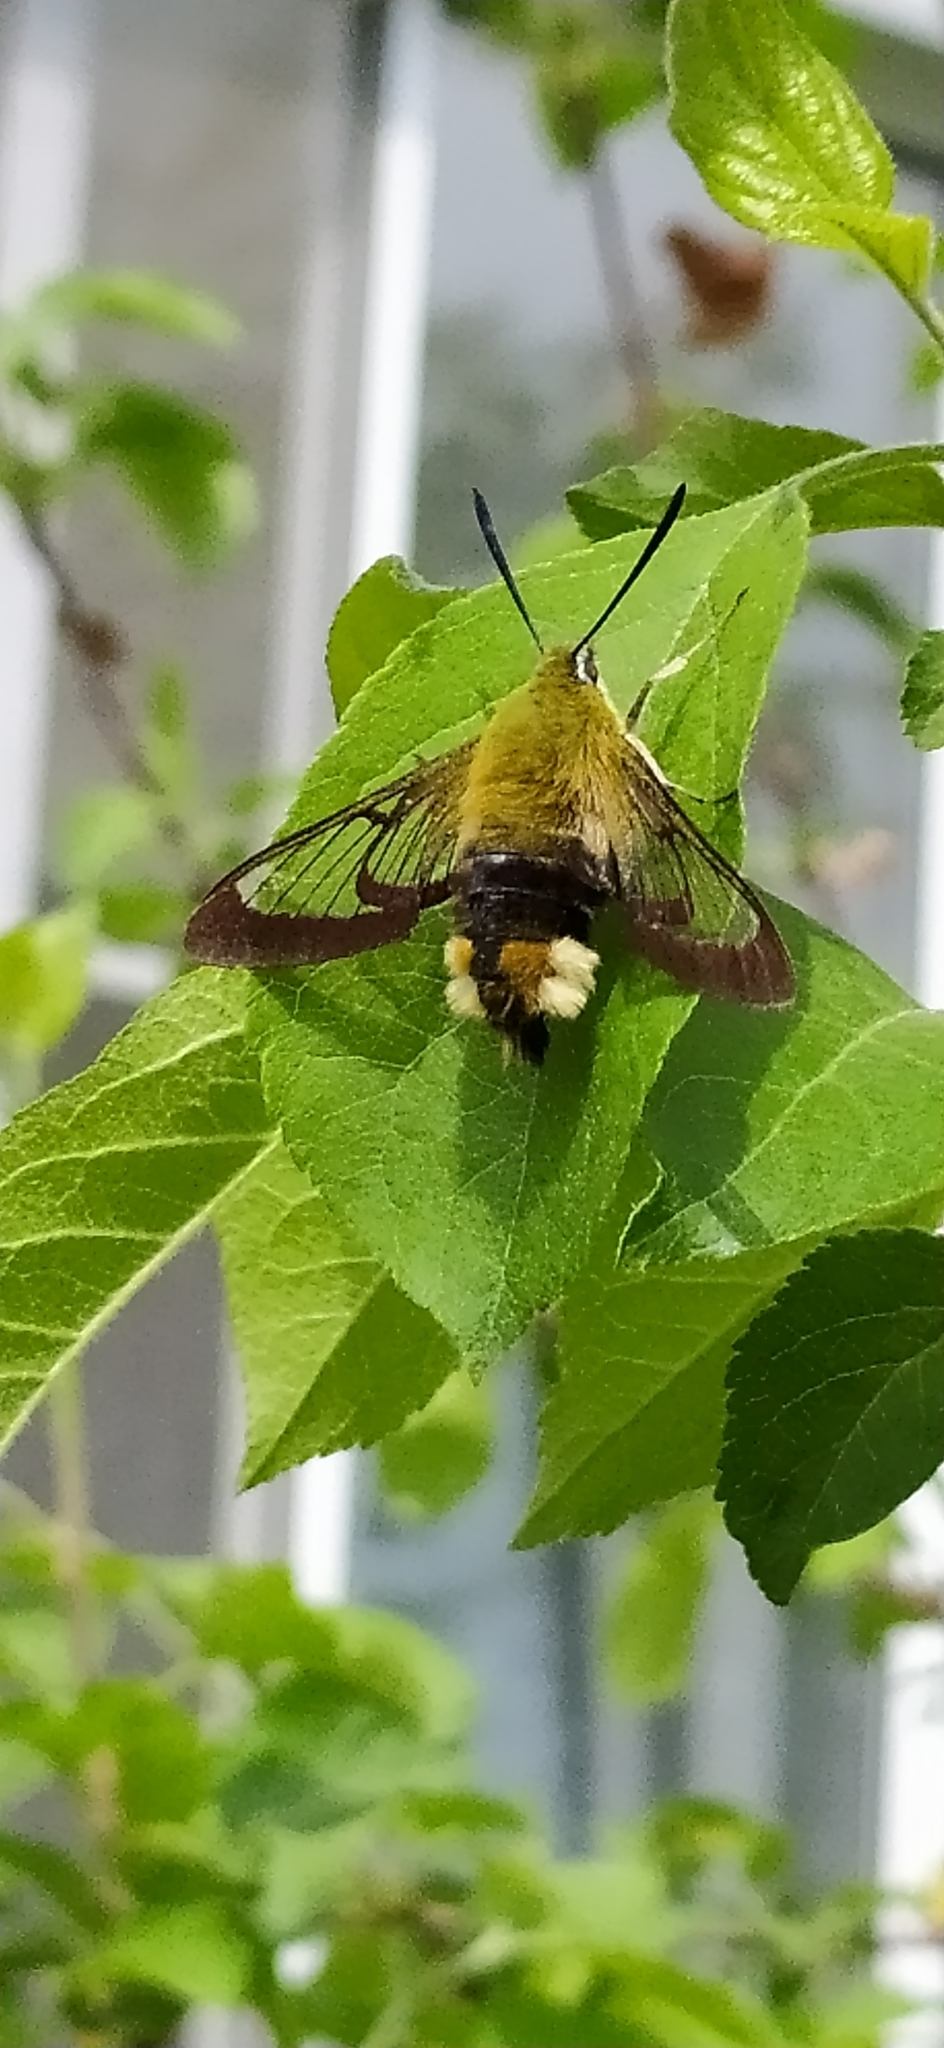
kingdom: Animalia
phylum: Arthropoda
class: Insecta
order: Lepidoptera
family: Sphingidae
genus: Hemaris
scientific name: Hemaris fuciformis
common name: Broad-bordered bee hawk-moth
